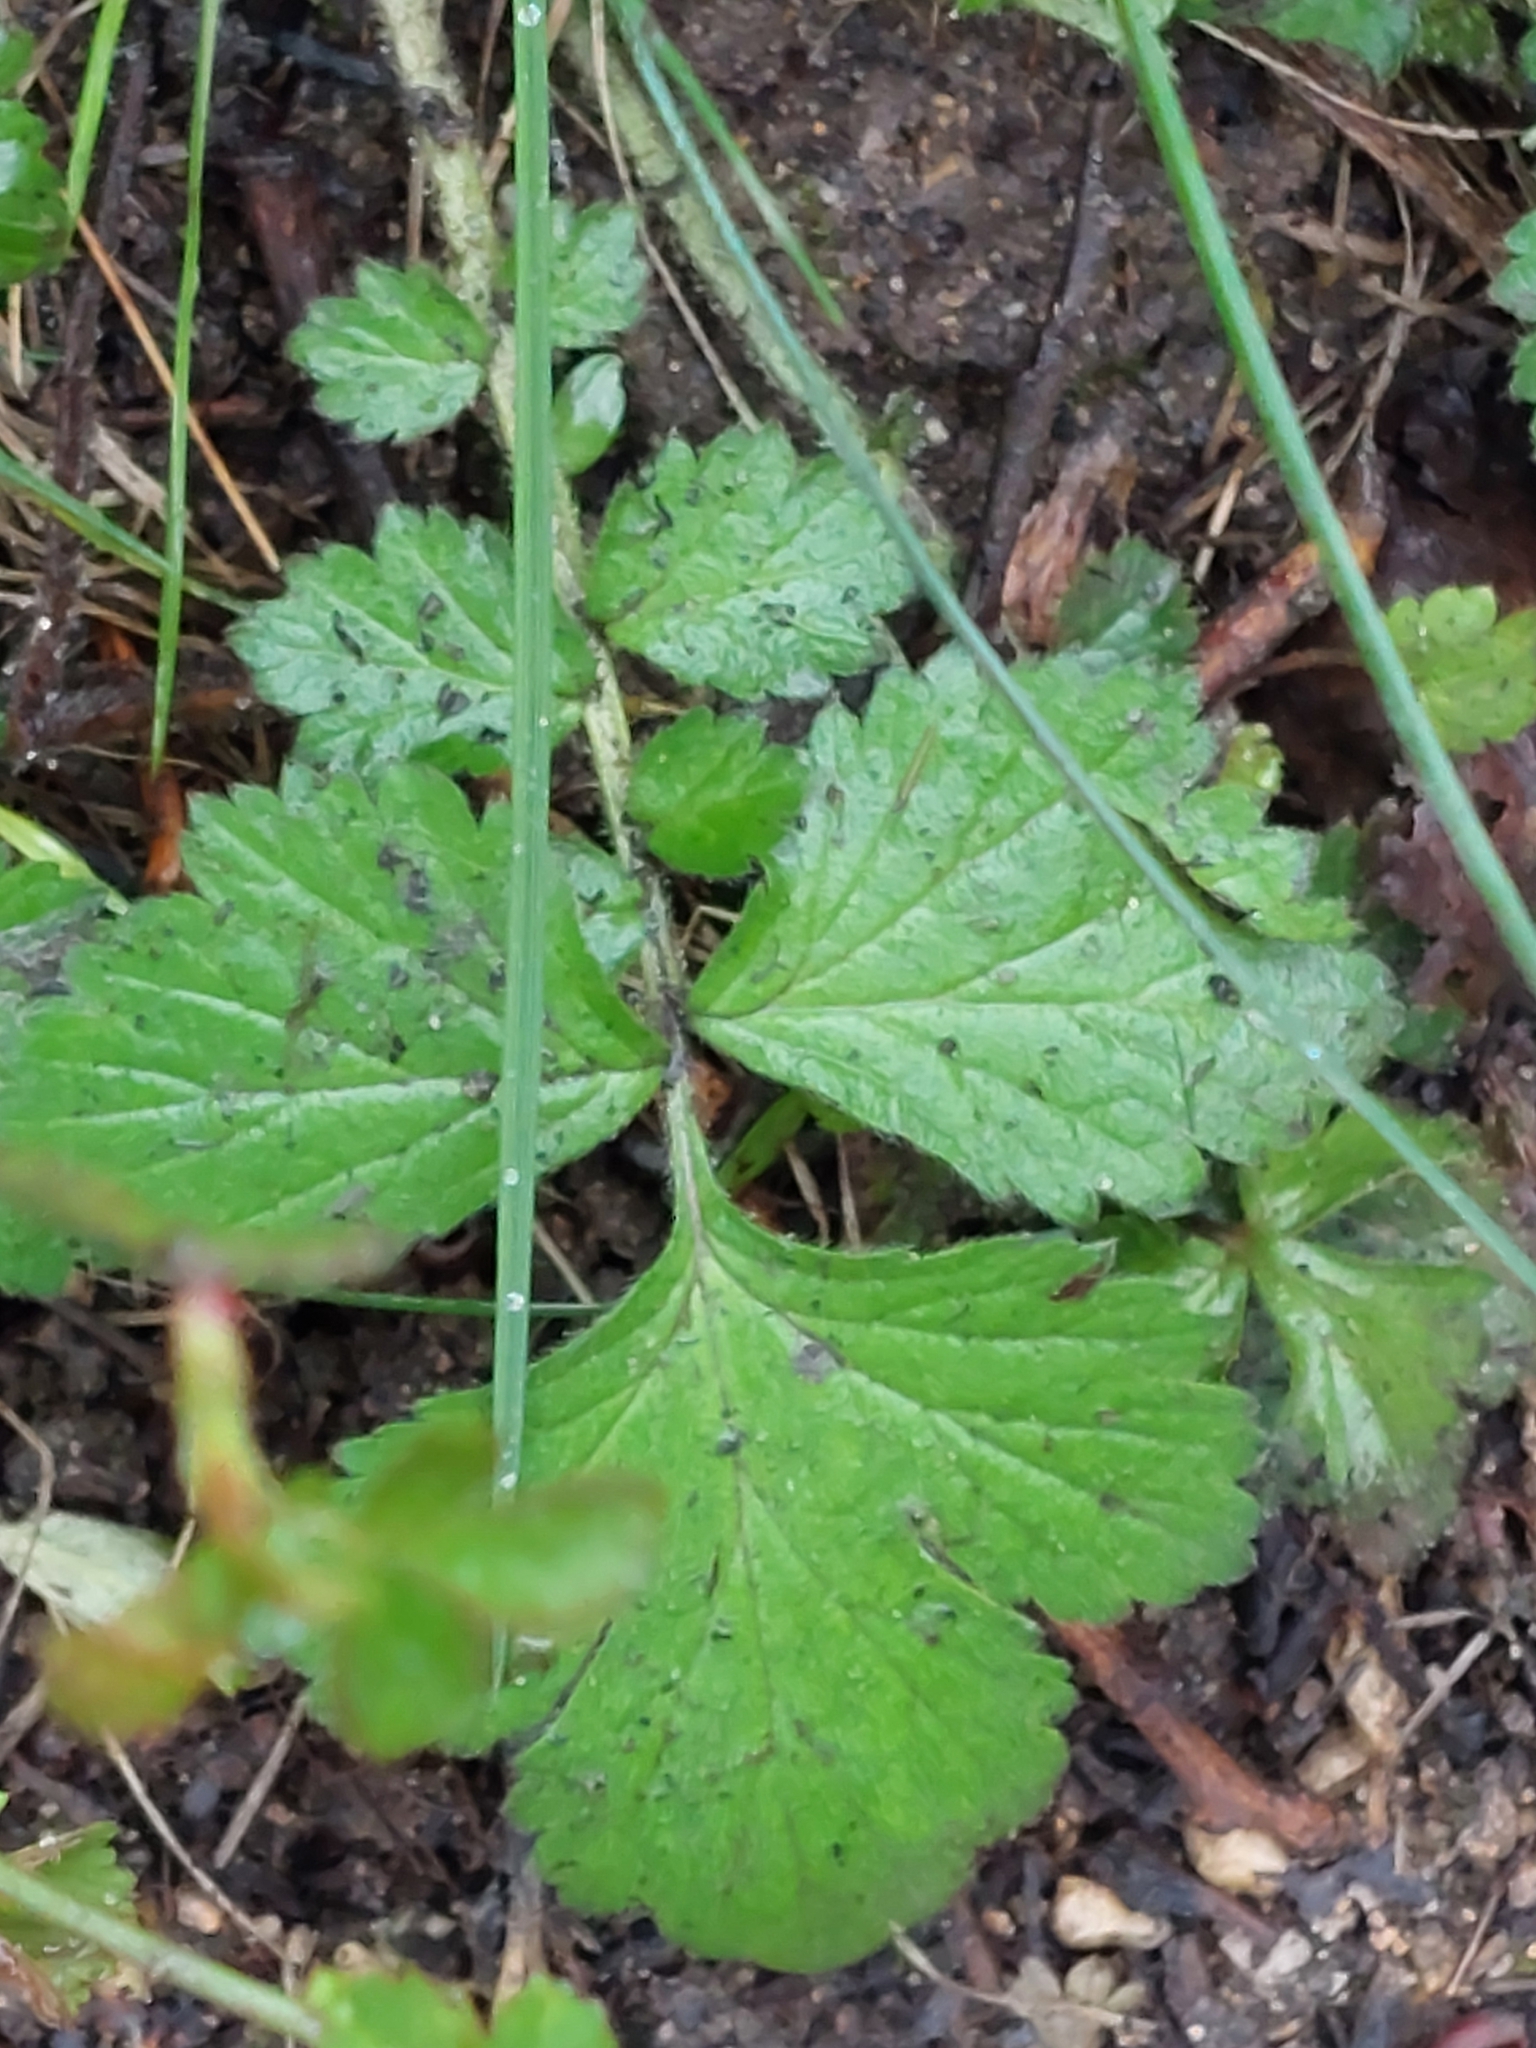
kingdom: Plantae
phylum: Tracheophyta
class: Magnoliopsida
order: Rosales
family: Rosaceae
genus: Geum
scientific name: Geum urbanum
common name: Wood avens
